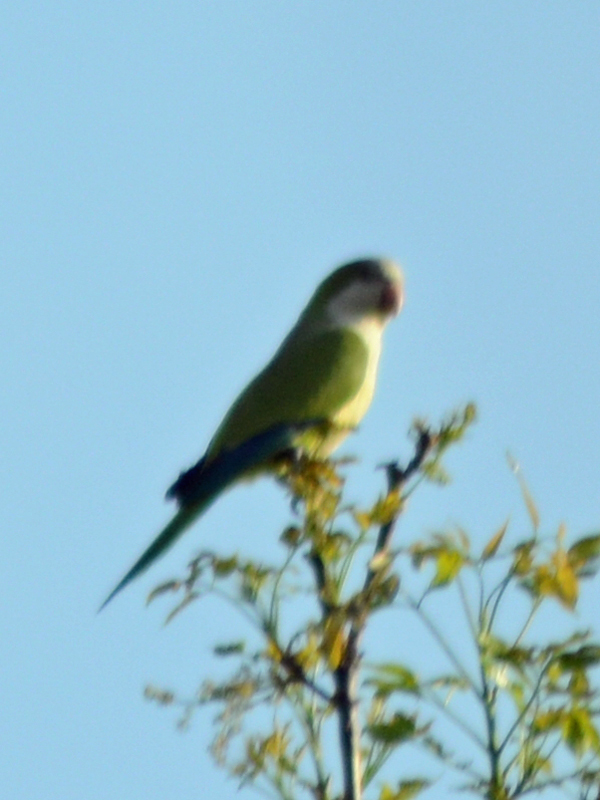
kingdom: Animalia
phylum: Chordata
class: Aves
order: Psittaciformes
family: Psittacidae
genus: Myiopsitta
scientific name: Myiopsitta monachus
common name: Monk parakeet
